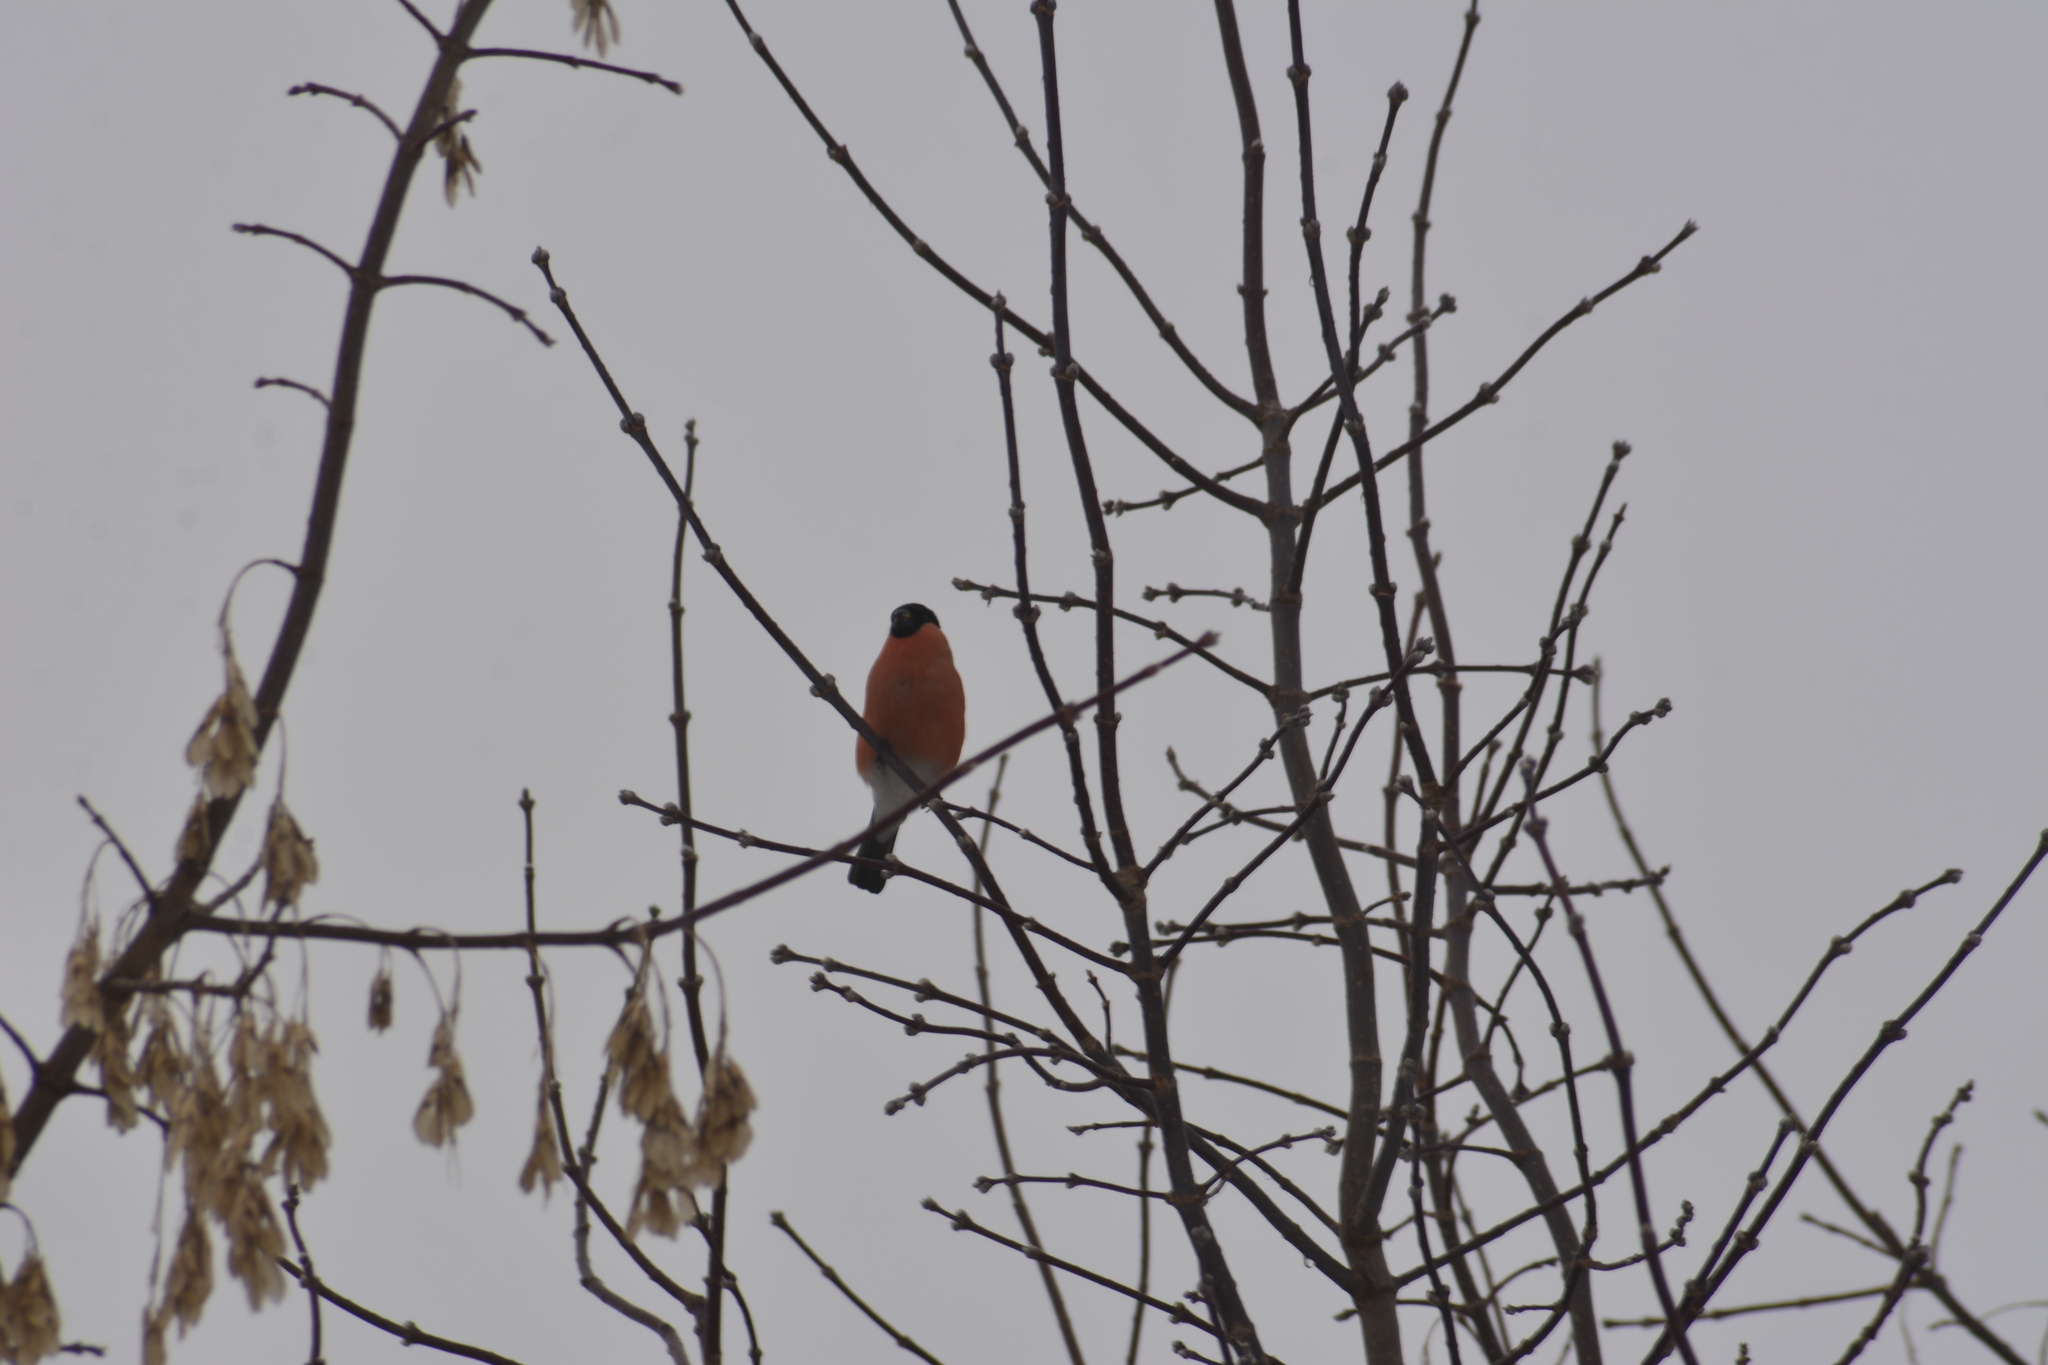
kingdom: Animalia
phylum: Chordata
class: Aves
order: Passeriformes
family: Fringillidae
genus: Pyrrhula
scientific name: Pyrrhula pyrrhula
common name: Eurasian bullfinch
